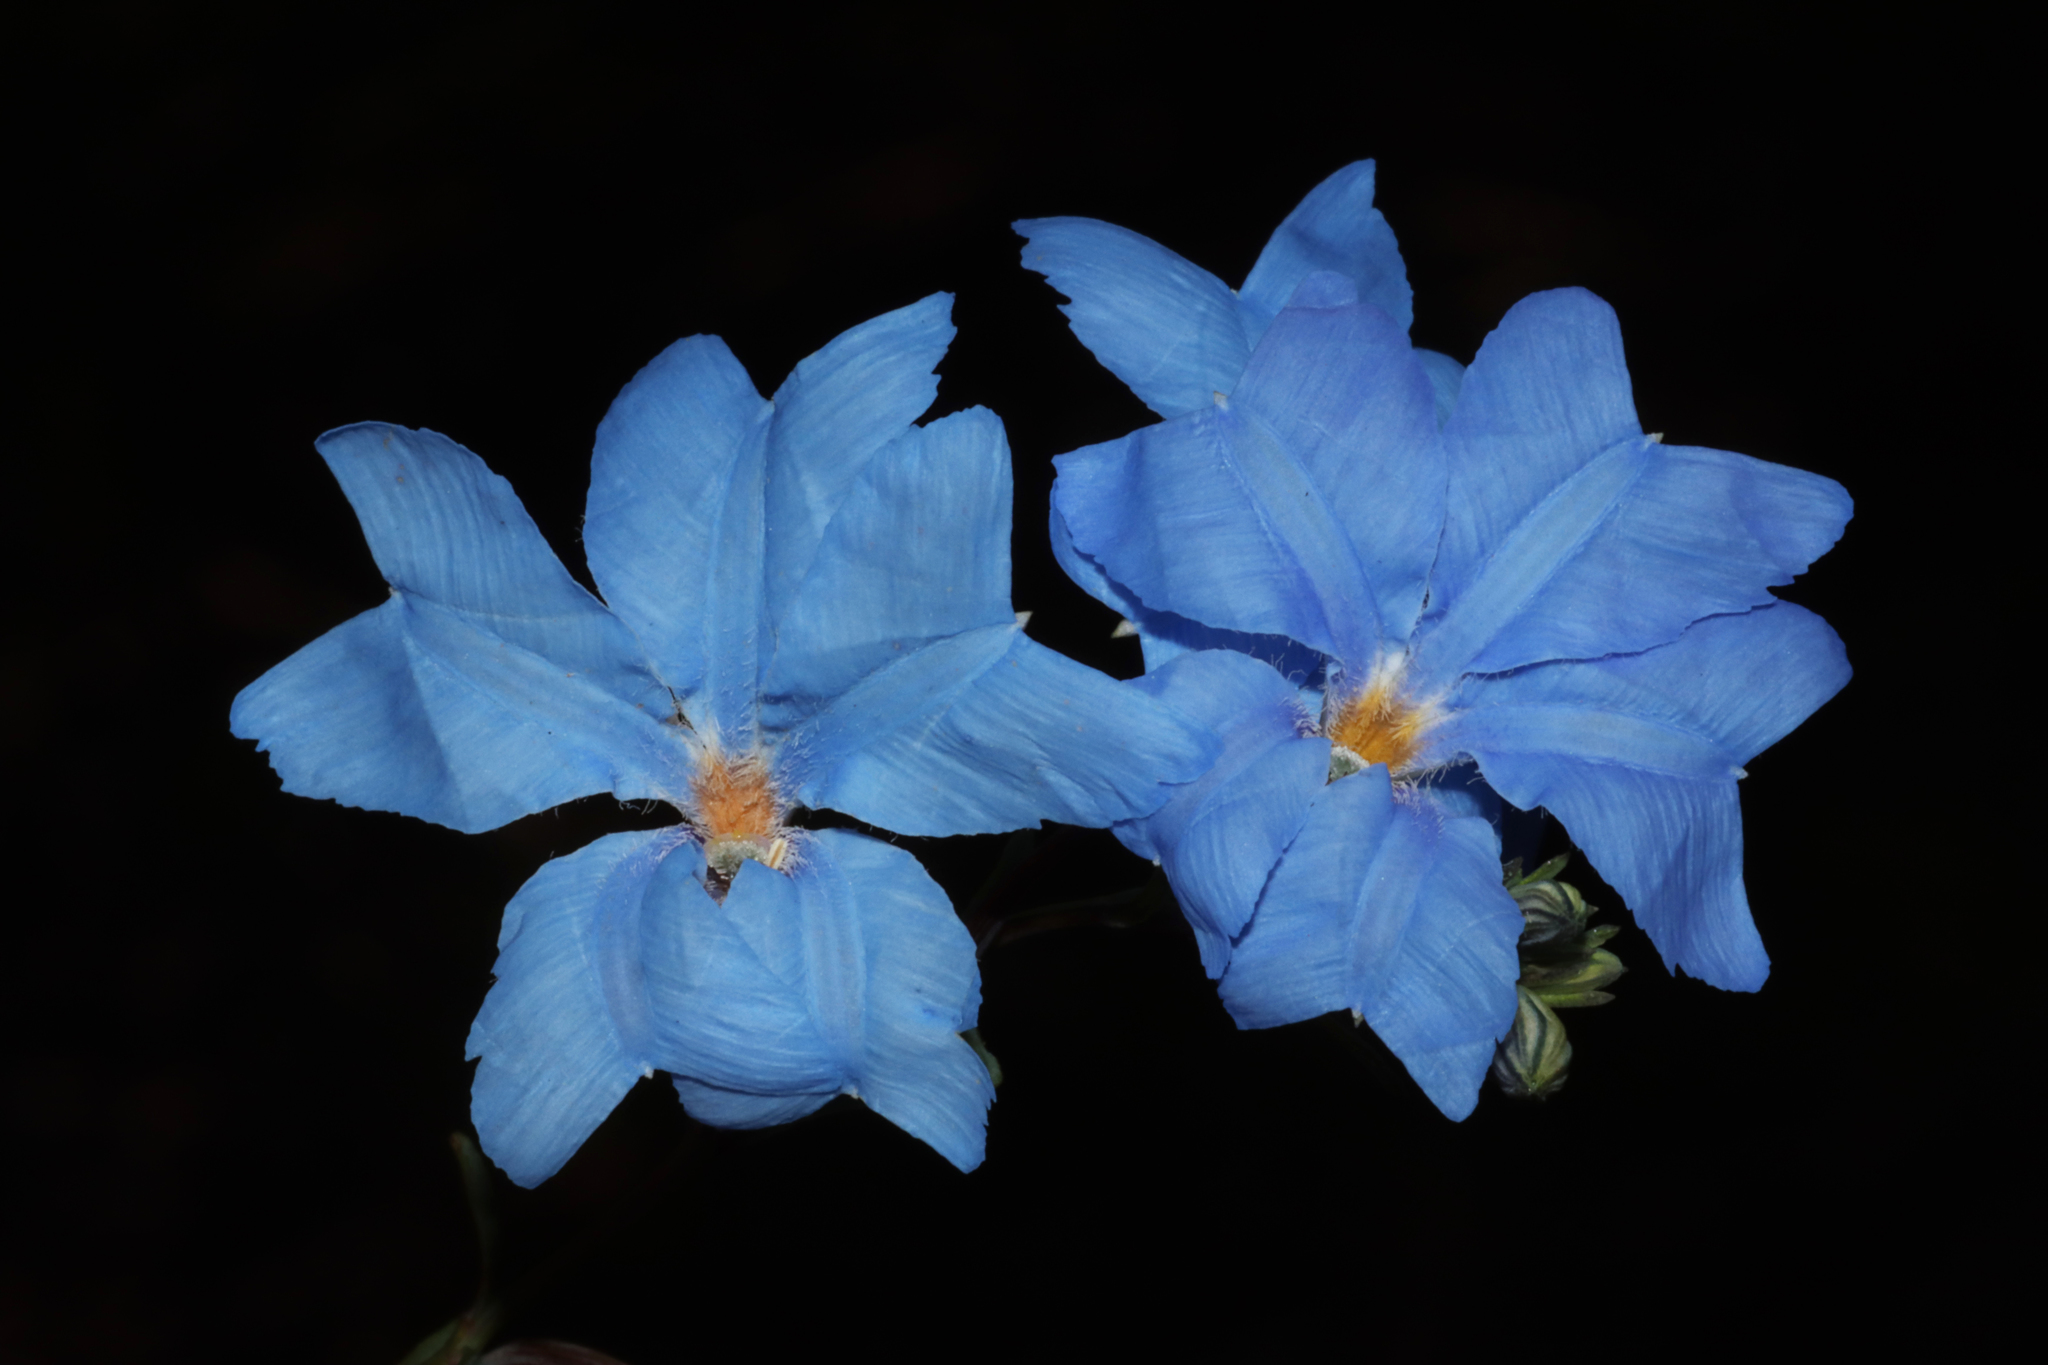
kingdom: Plantae
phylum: Tracheophyta
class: Magnoliopsida
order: Asterales
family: Goodeniaceae
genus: Lechenaultia
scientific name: Lechenaultia biloba
